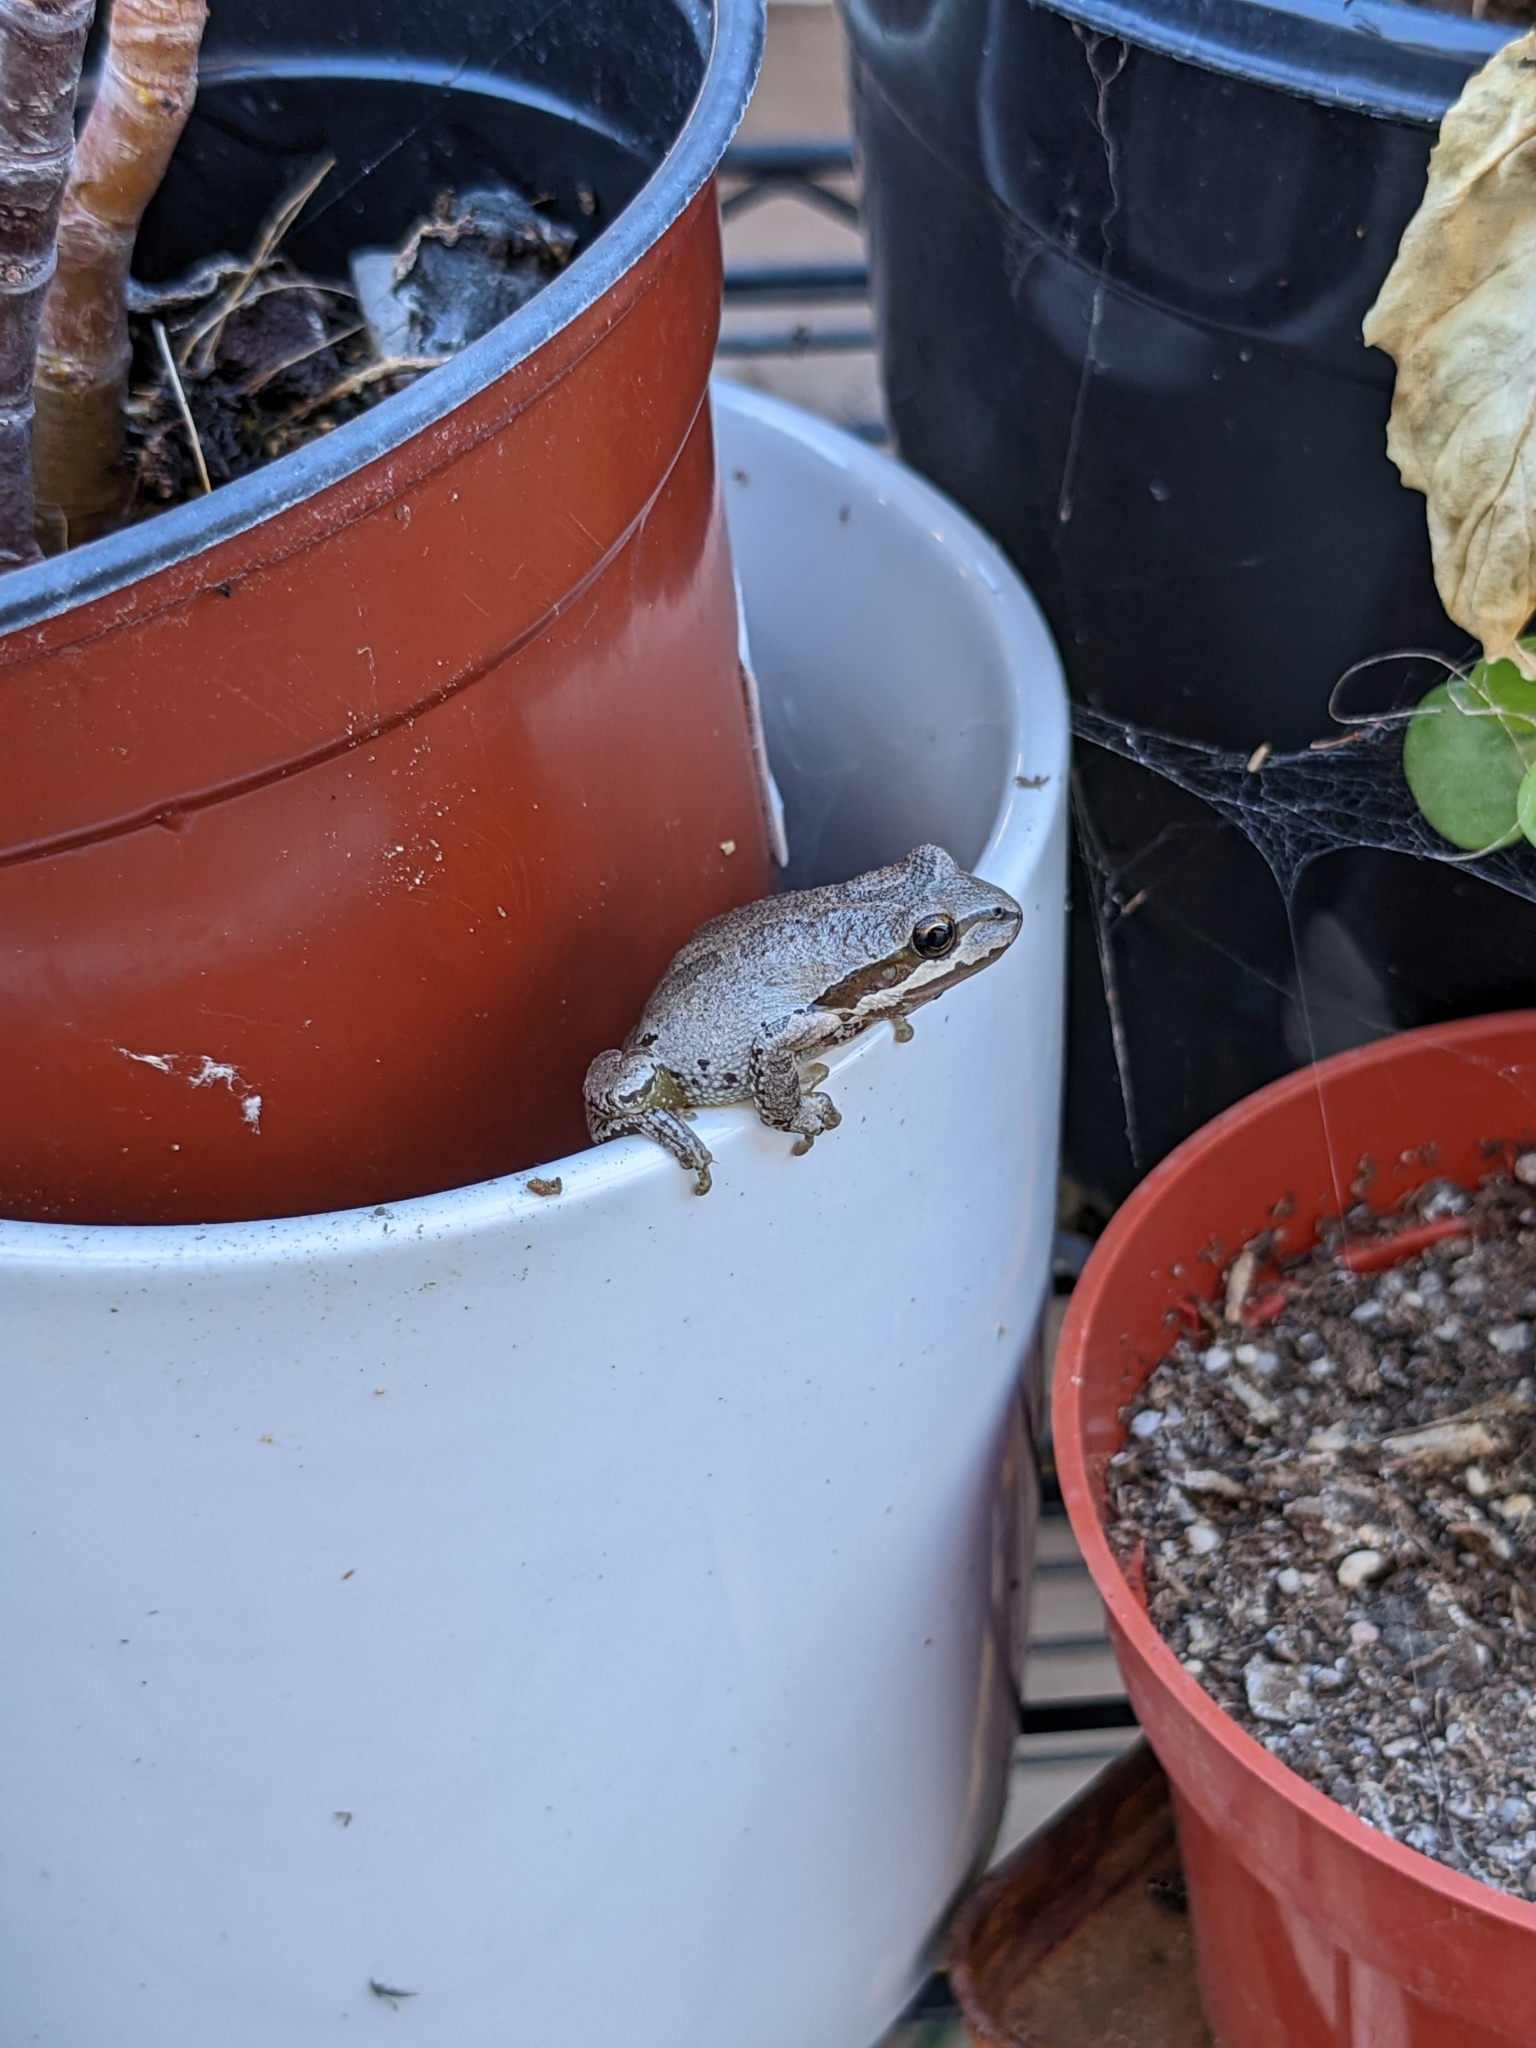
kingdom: Animalia
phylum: Chordata
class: Amphibia
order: Anura
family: Hylidae
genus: Pseudacris
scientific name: Pseudacris regilla
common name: Pacific chorus frog
